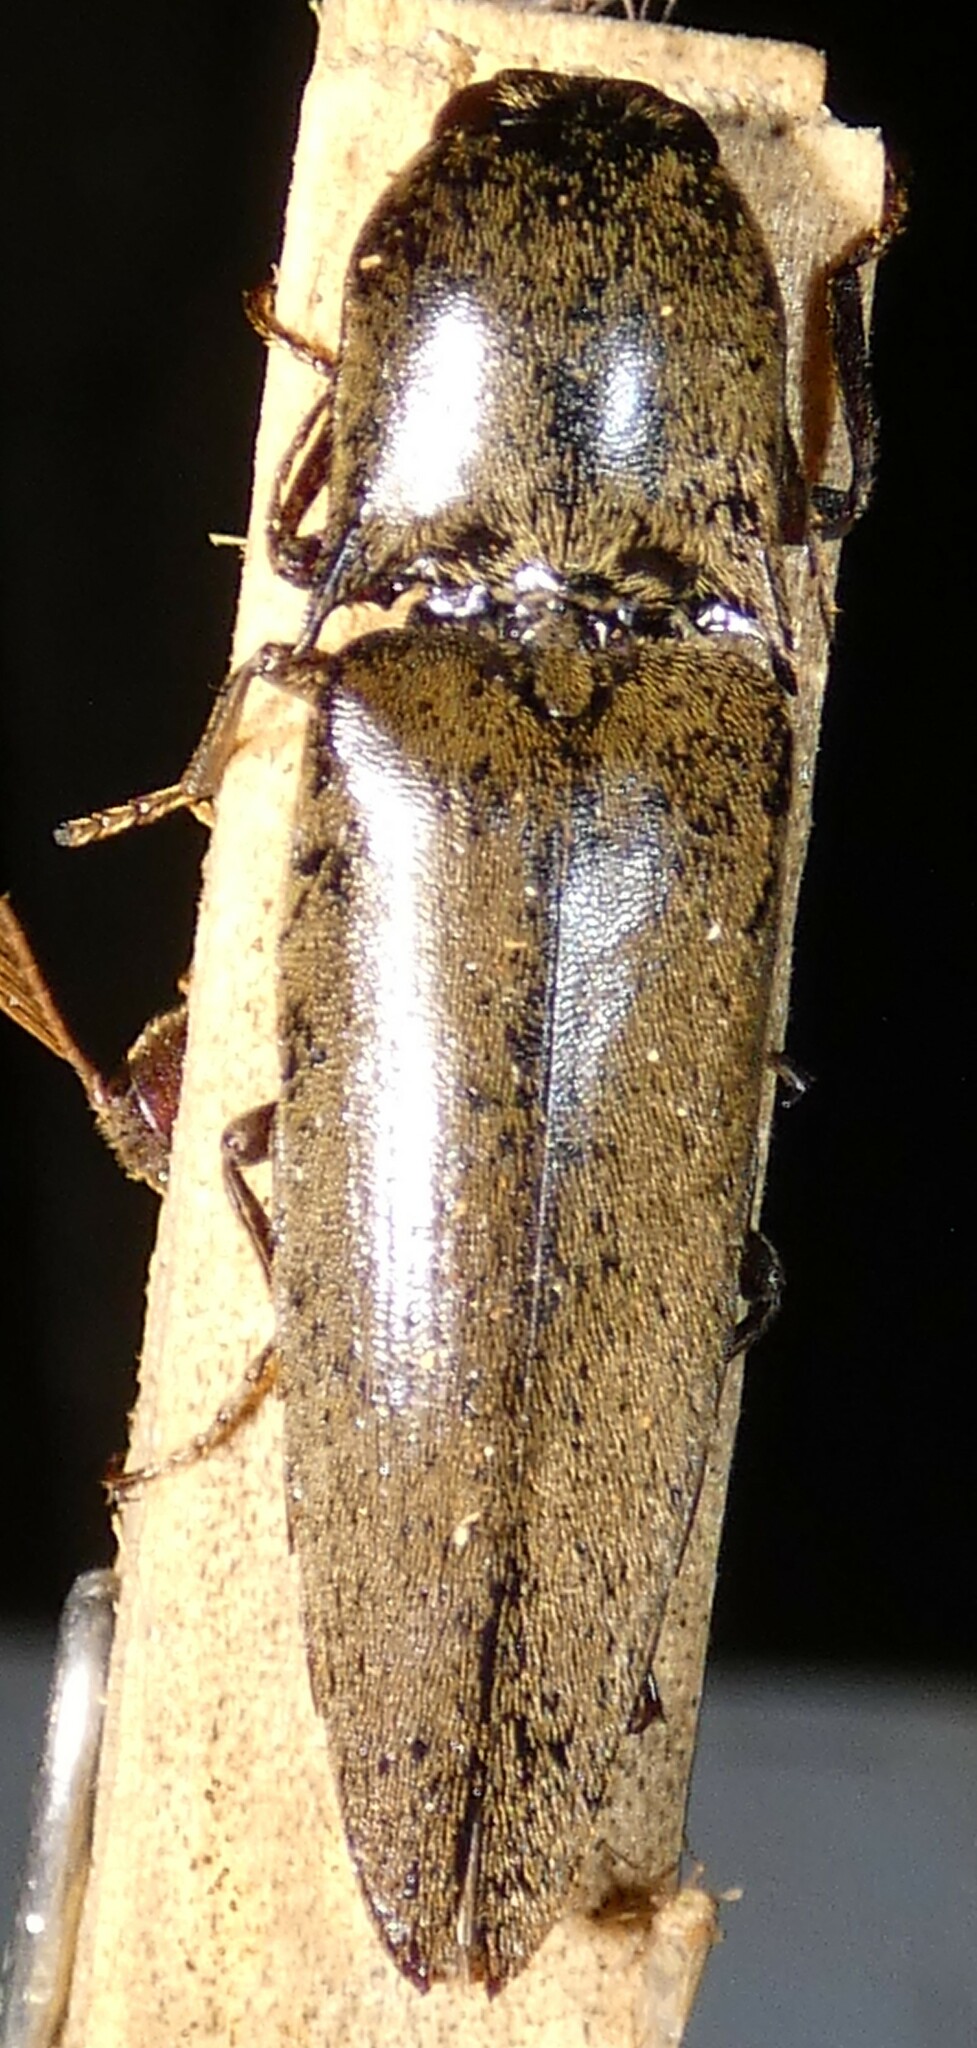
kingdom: Animalia
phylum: Arthropoda
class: Insecta
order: Coleoptera
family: Elateridae
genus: Orthostethus
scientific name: Orthostethus infuscatus
